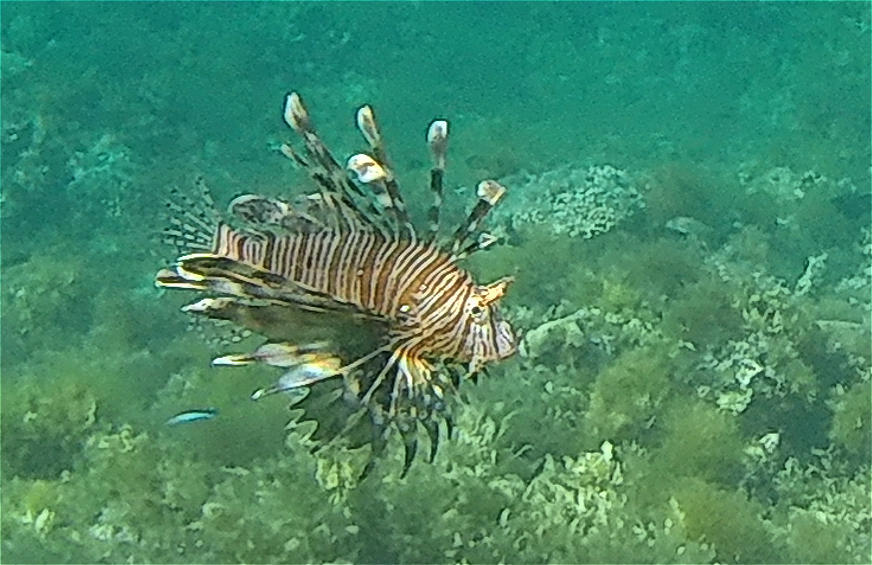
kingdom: Animalia
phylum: Chordata
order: Scorpaeniformes
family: Scorpaenidae
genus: Pterois
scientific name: Pterois miles
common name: Devil firefish
